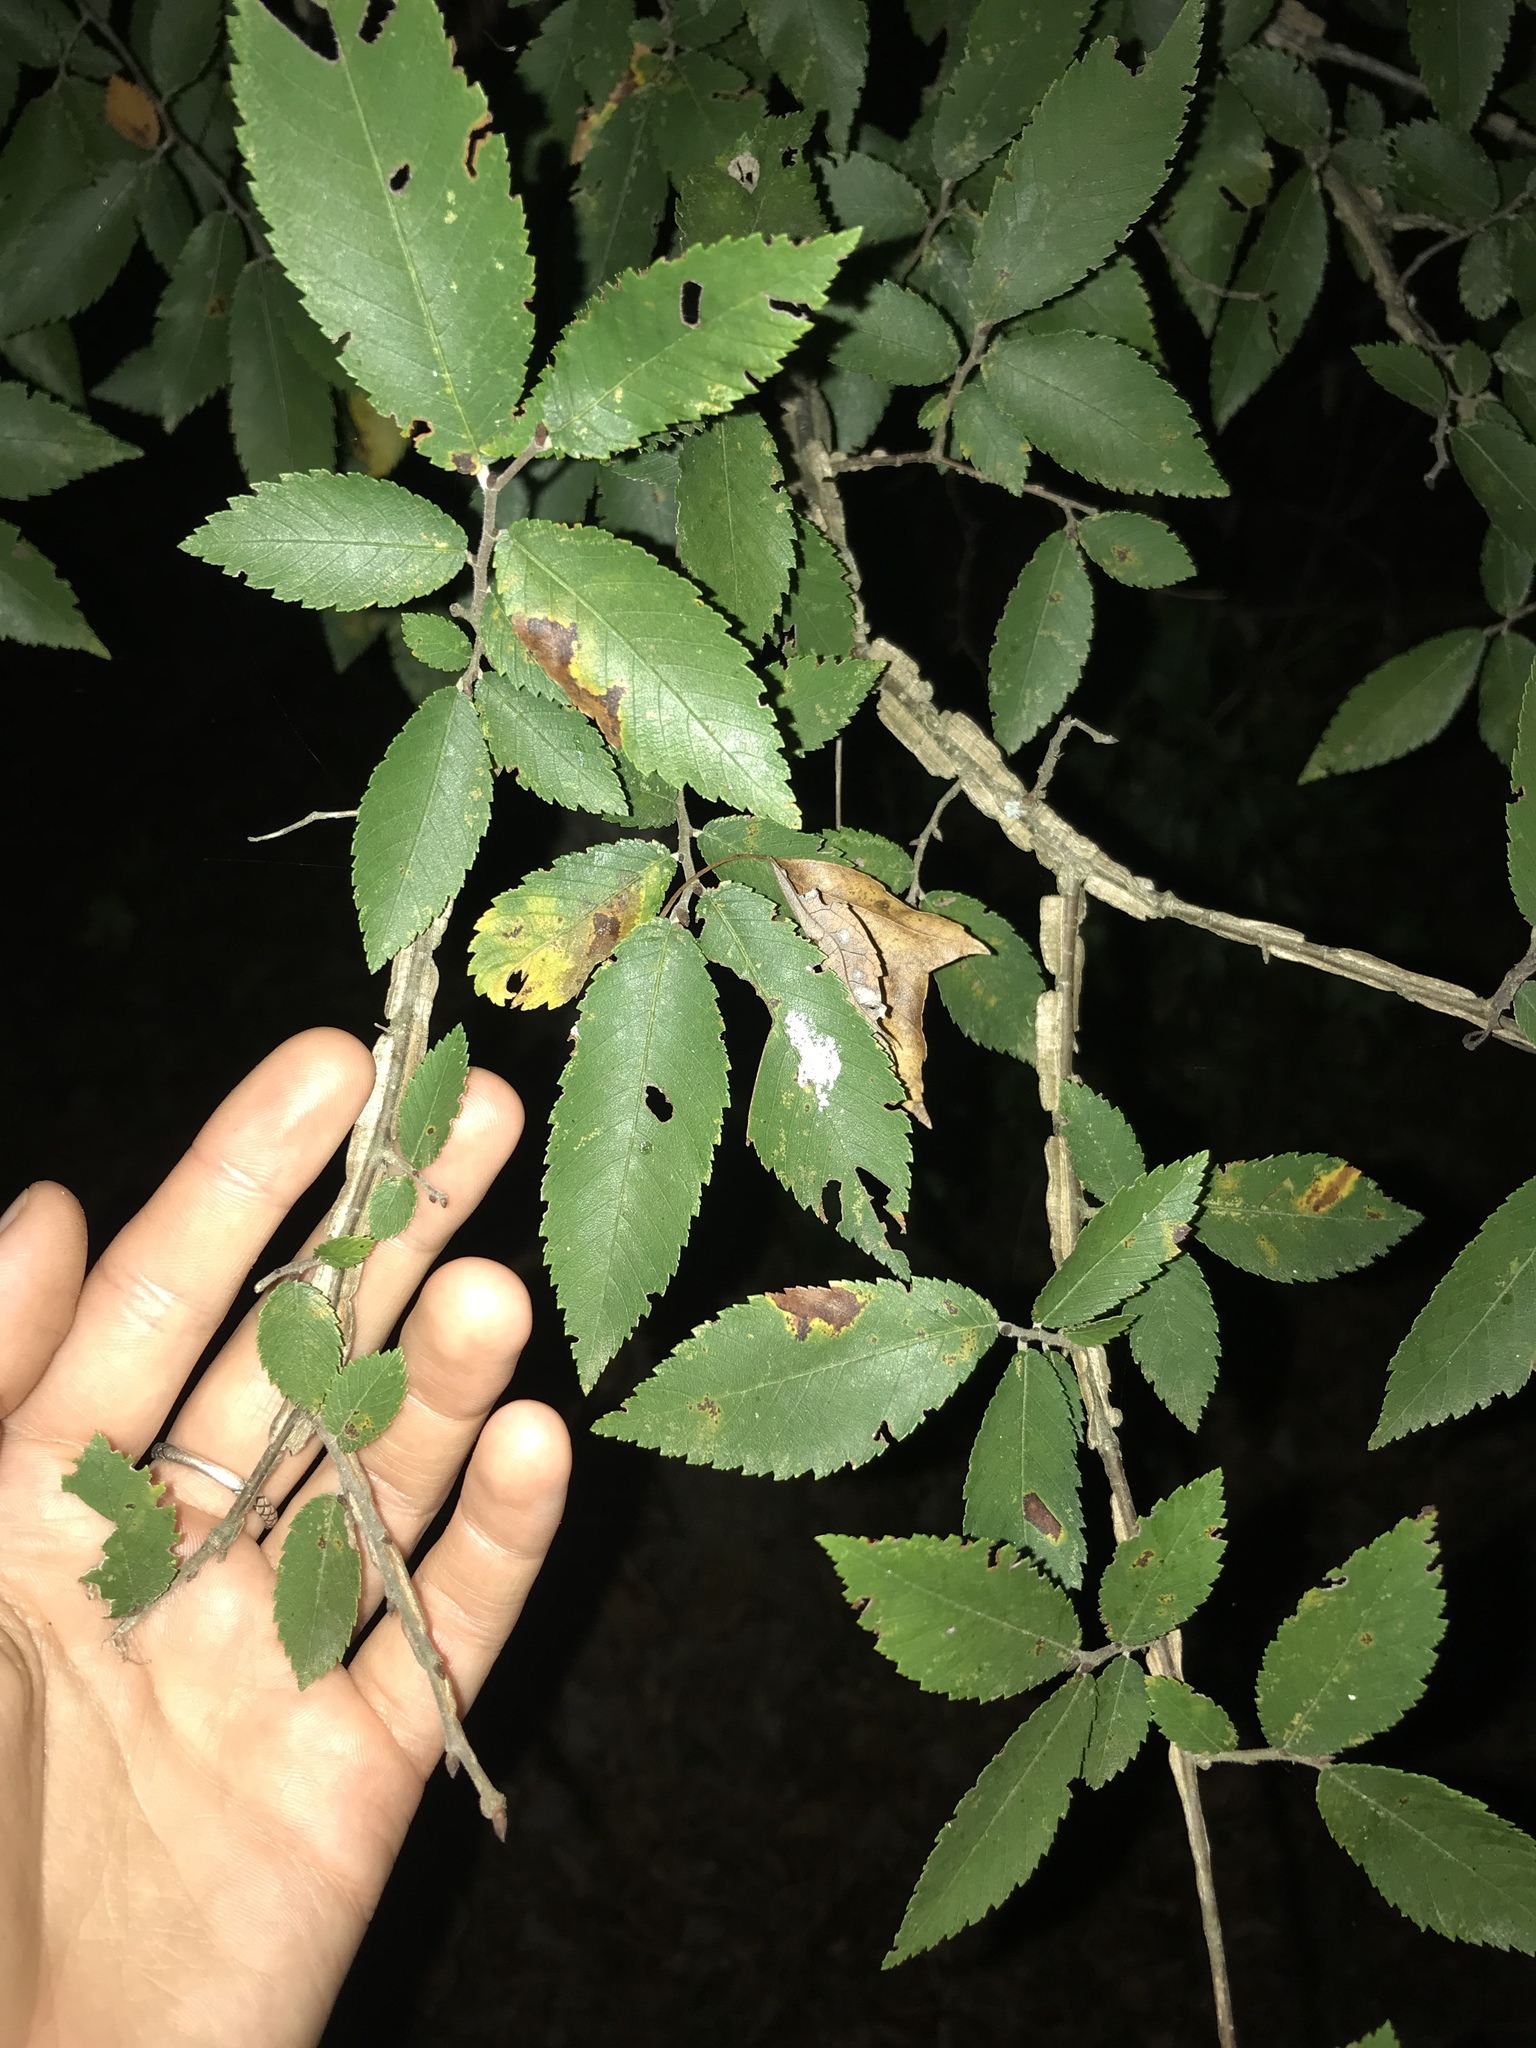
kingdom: Plantae
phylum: Tracheophyta
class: Magnoliopsida
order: Rosales
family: Ulmaceae
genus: Ulmus
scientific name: Ulmus alata
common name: Winged elm
